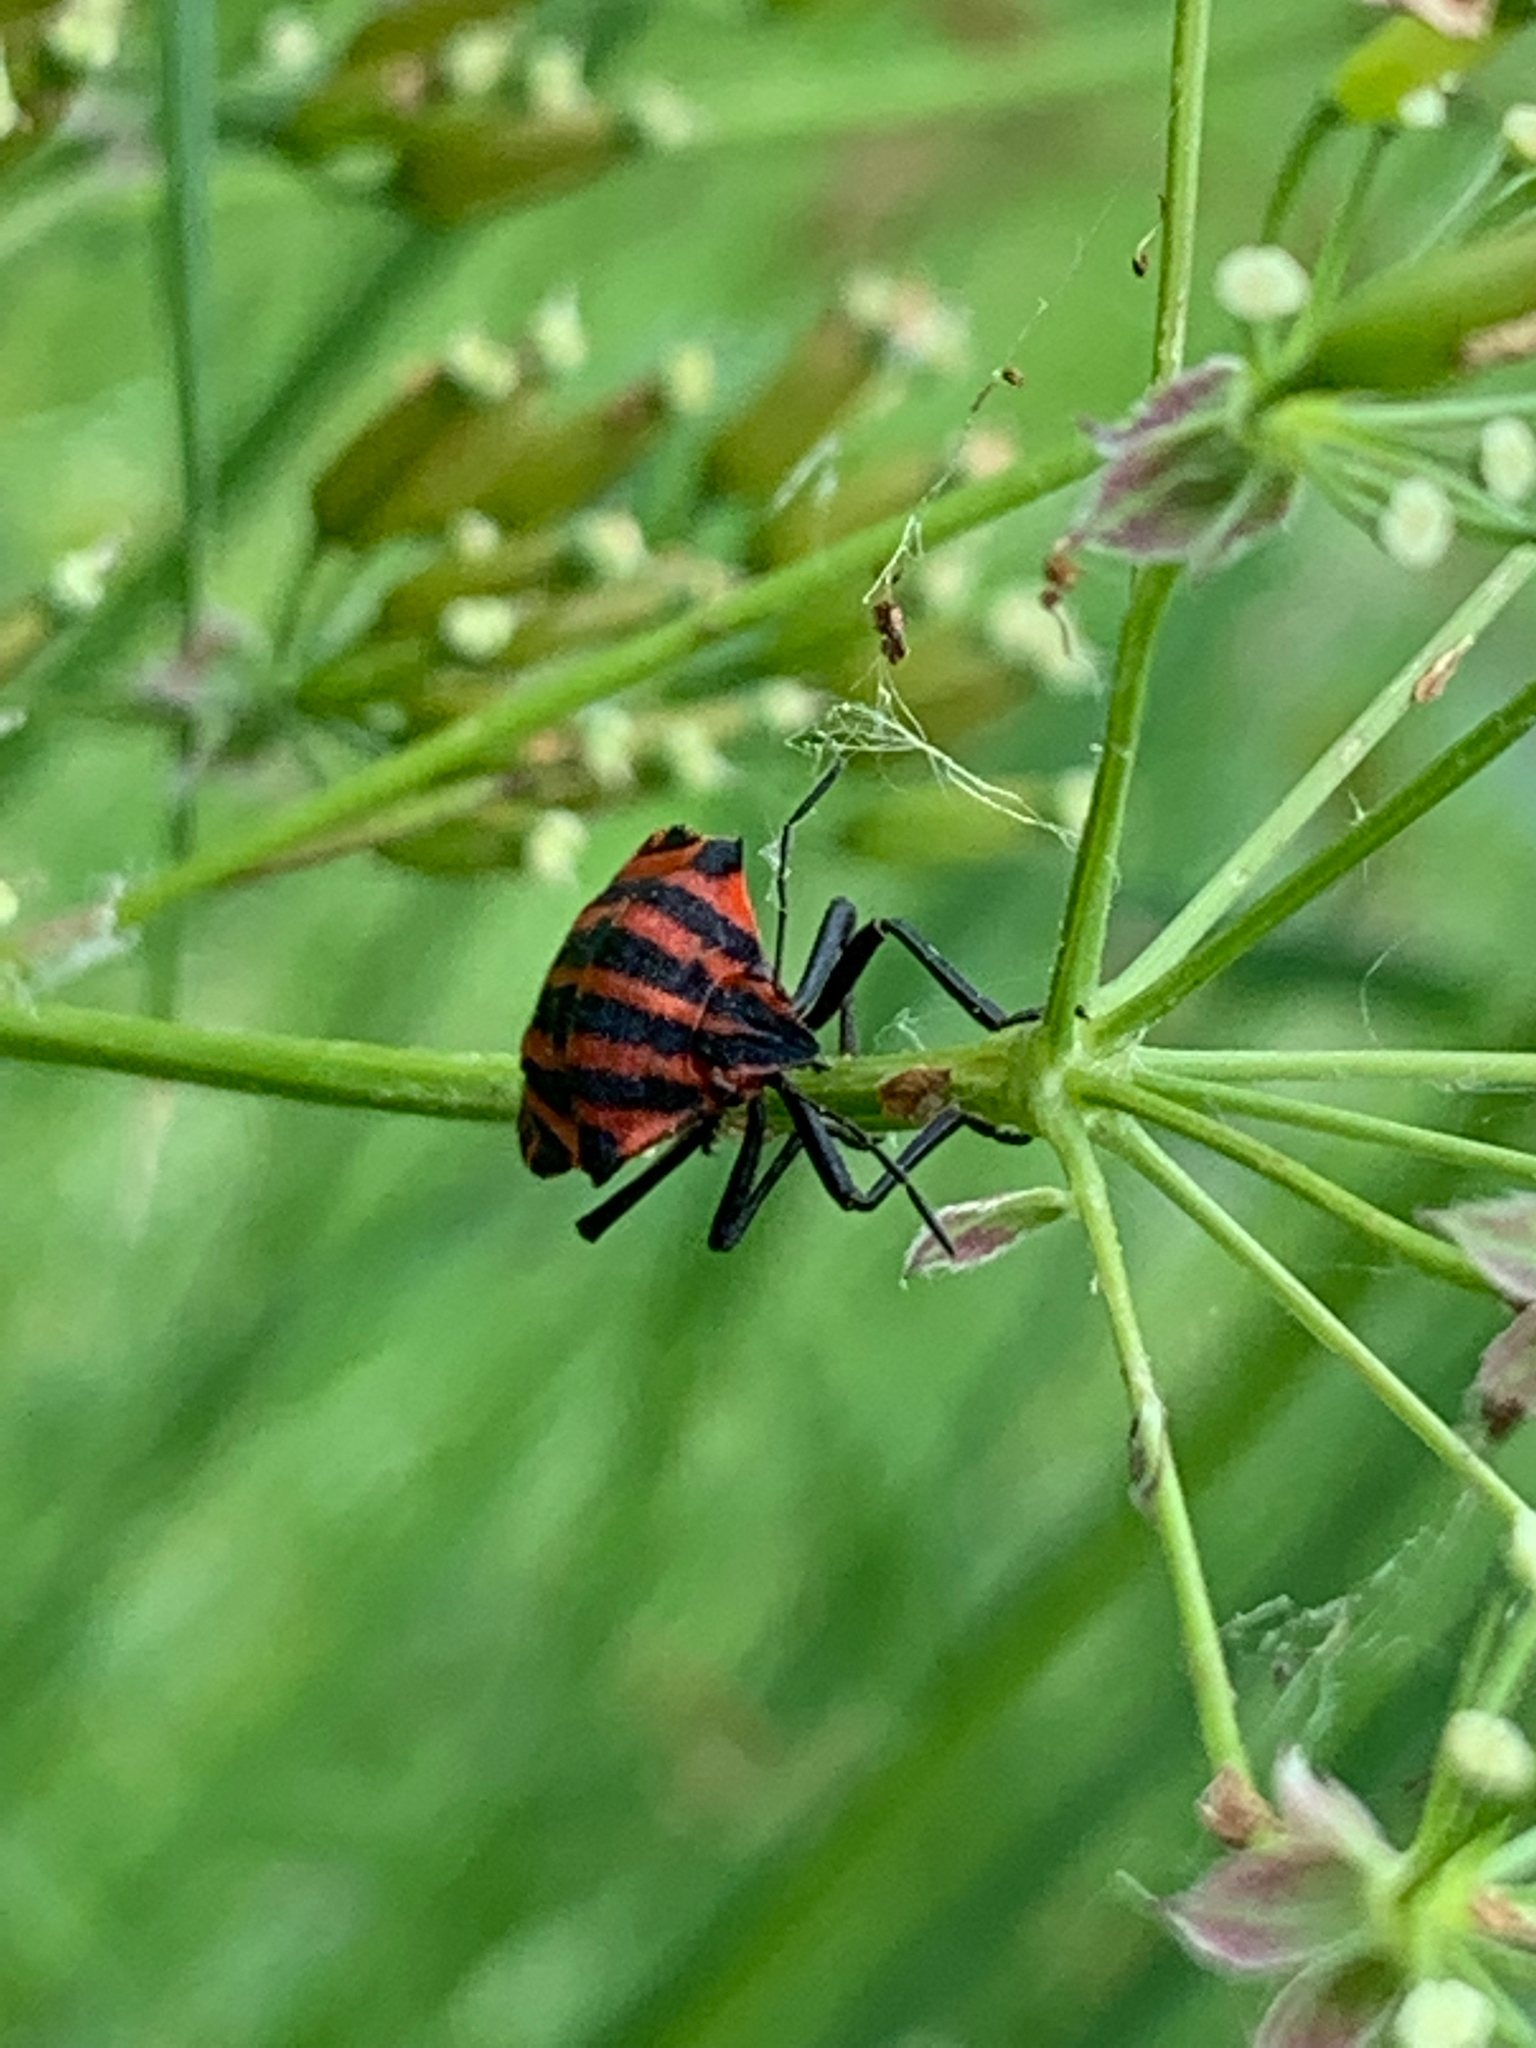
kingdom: Animalia
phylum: Arthropoda
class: Insecta
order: Hemiptera
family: Pentatomidae
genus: Graphosoma
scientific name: Graphosoma italicum
